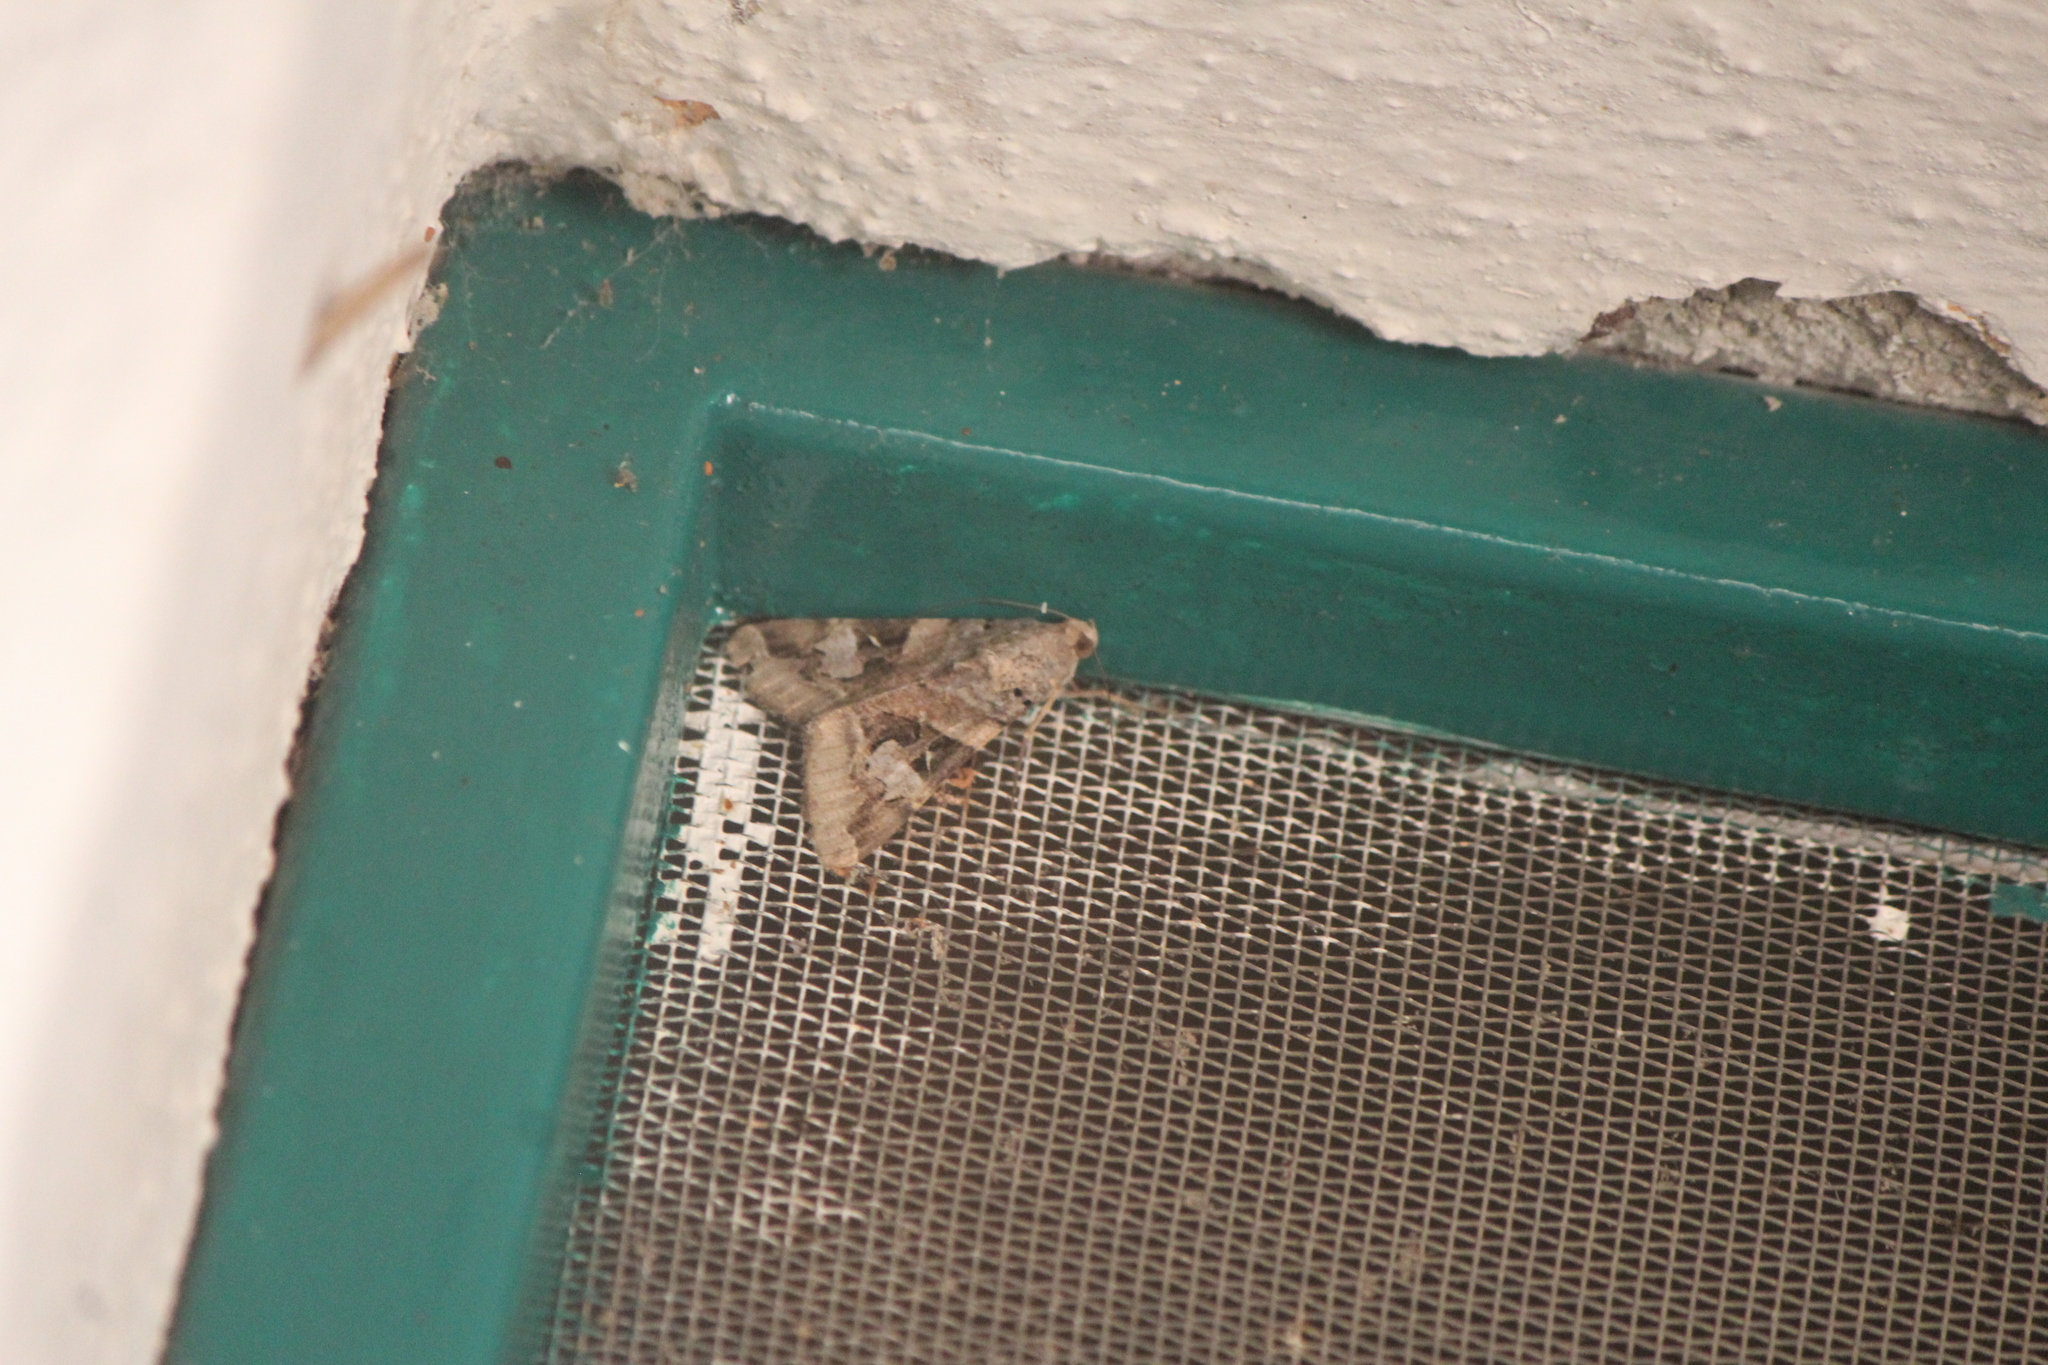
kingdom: Animalia
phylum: Arthropoda
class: Insecta
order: Lepidoptera
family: Erebidae
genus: Melipotis
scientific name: Melipotis indomita
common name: Moth
